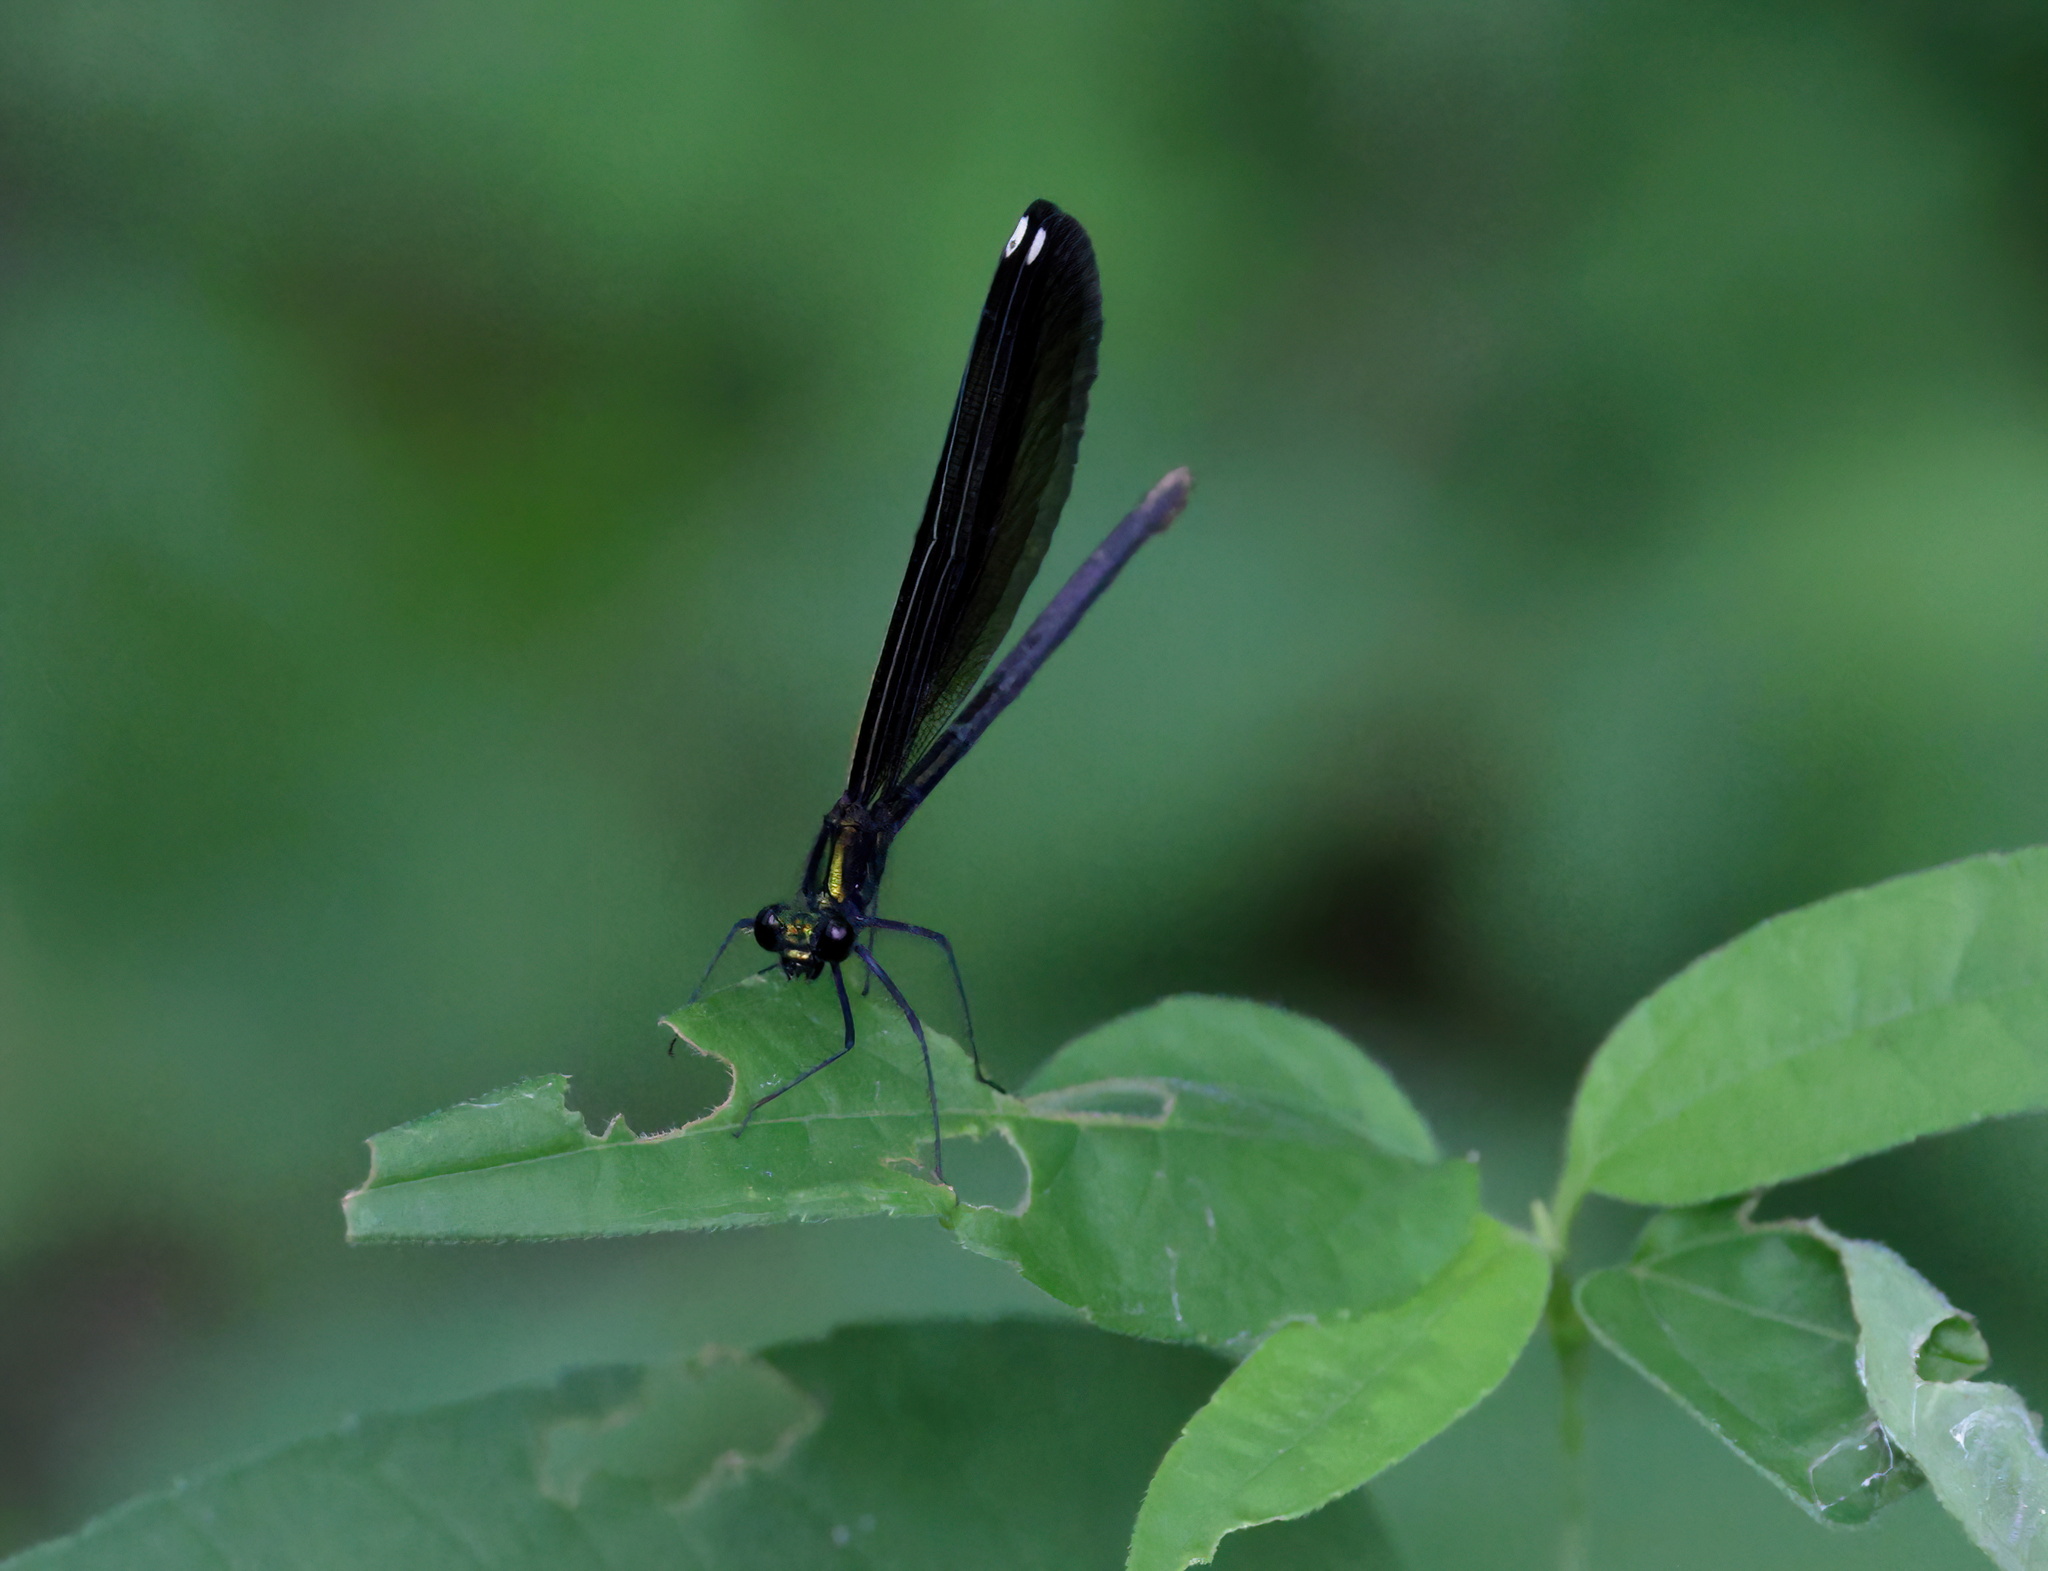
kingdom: Animalia
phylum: Arthropoda
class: Insecta
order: Odonata
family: Calopterygidae
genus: Calopteryx
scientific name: Calopteryx maculata
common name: Ebony jewelwing
